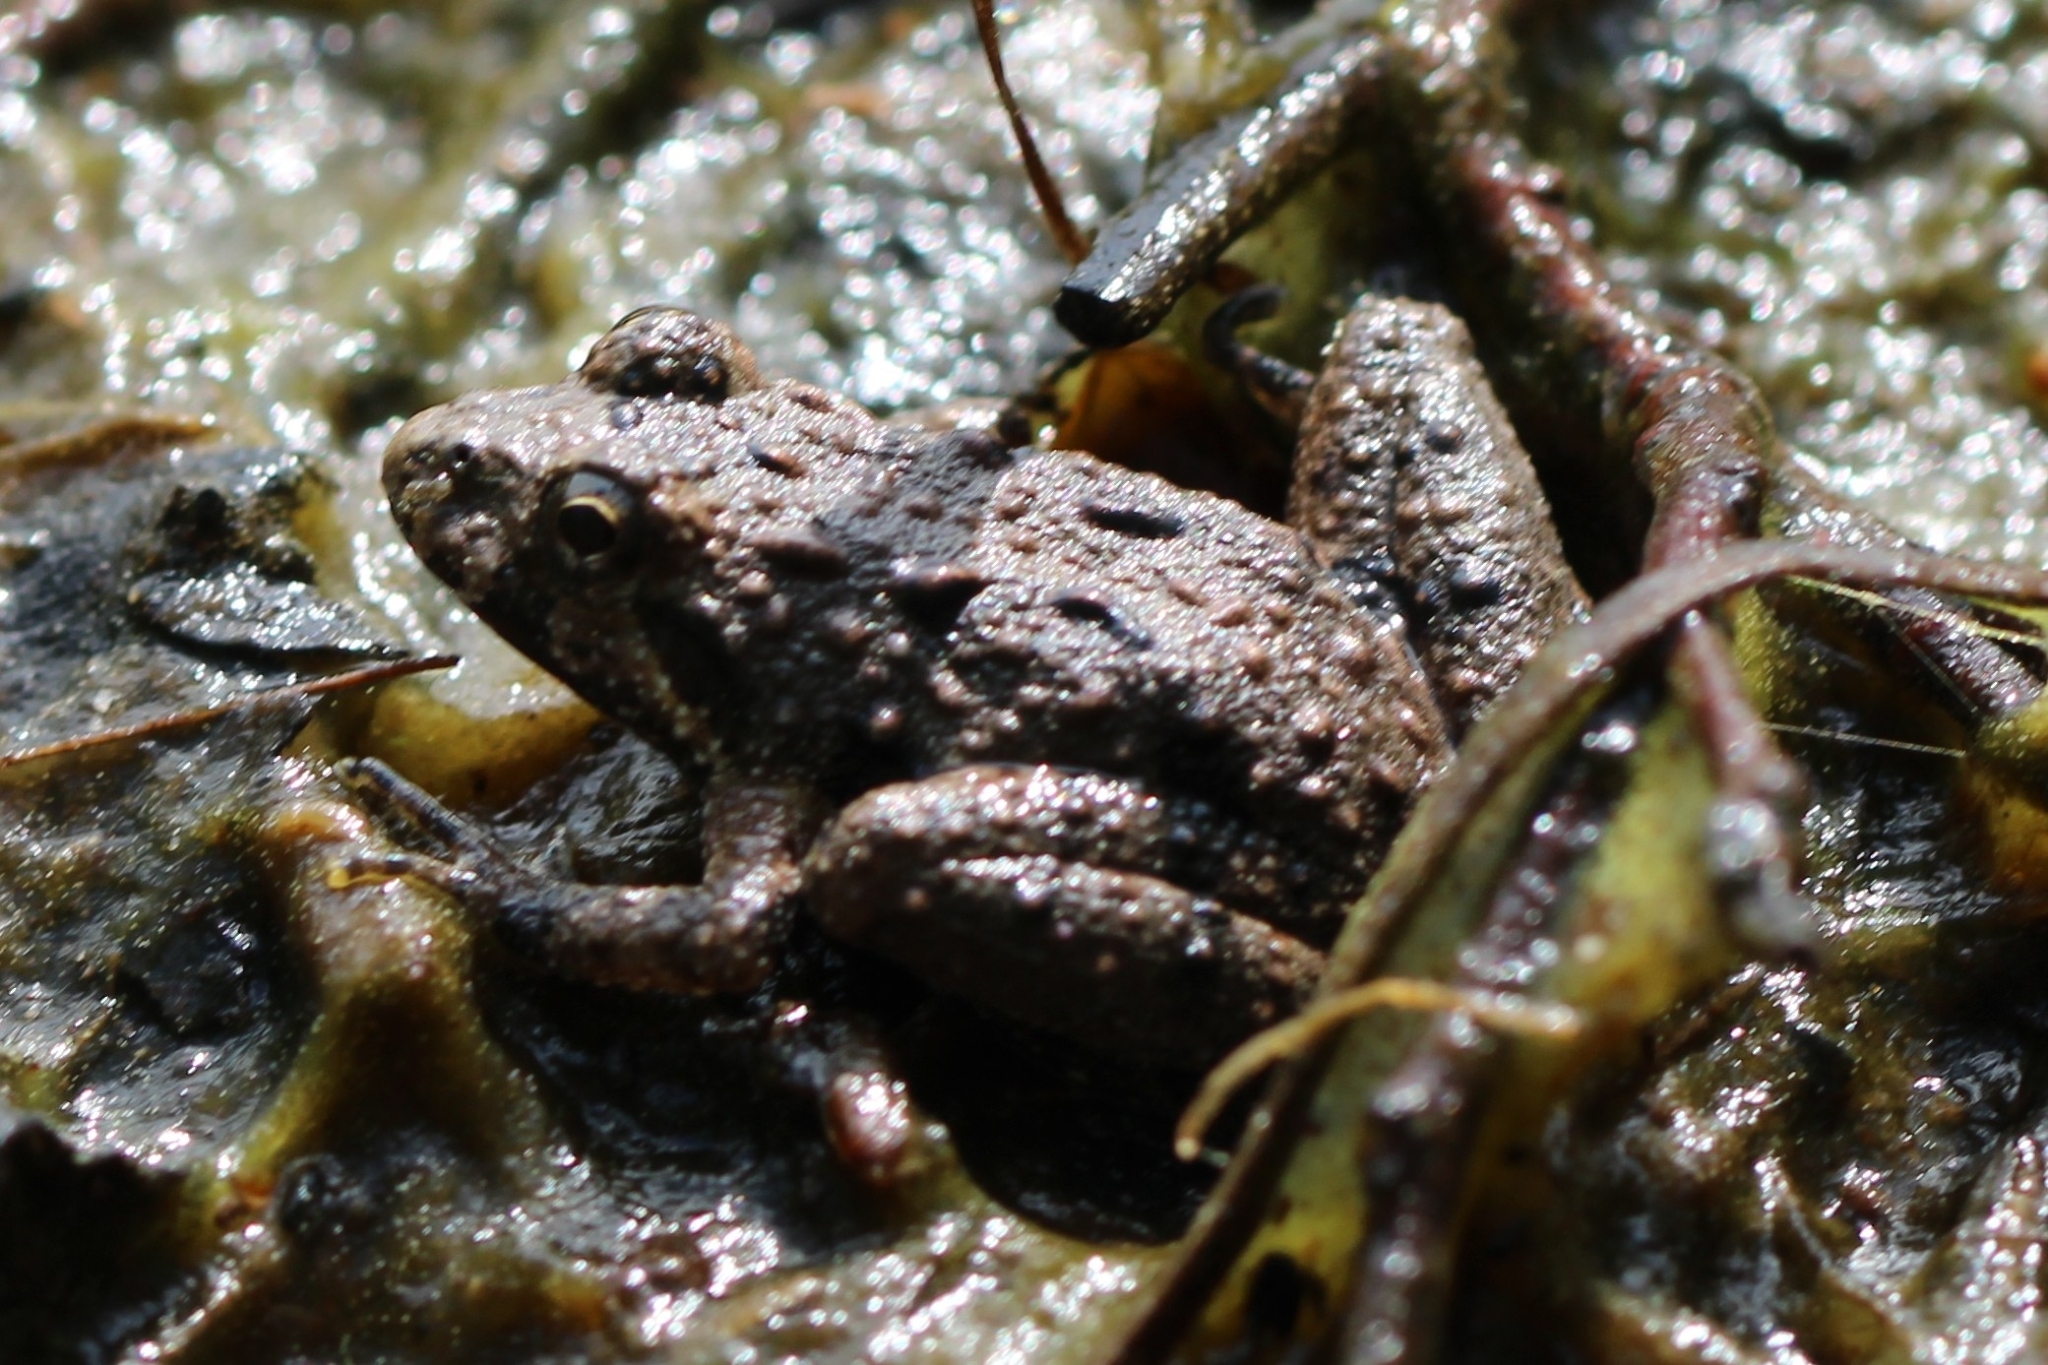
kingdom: Animalia
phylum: Chordata
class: Amphibia
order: Anura
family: Hylidae
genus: Acris
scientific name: Acris crepitans
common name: Northern cricket frog
